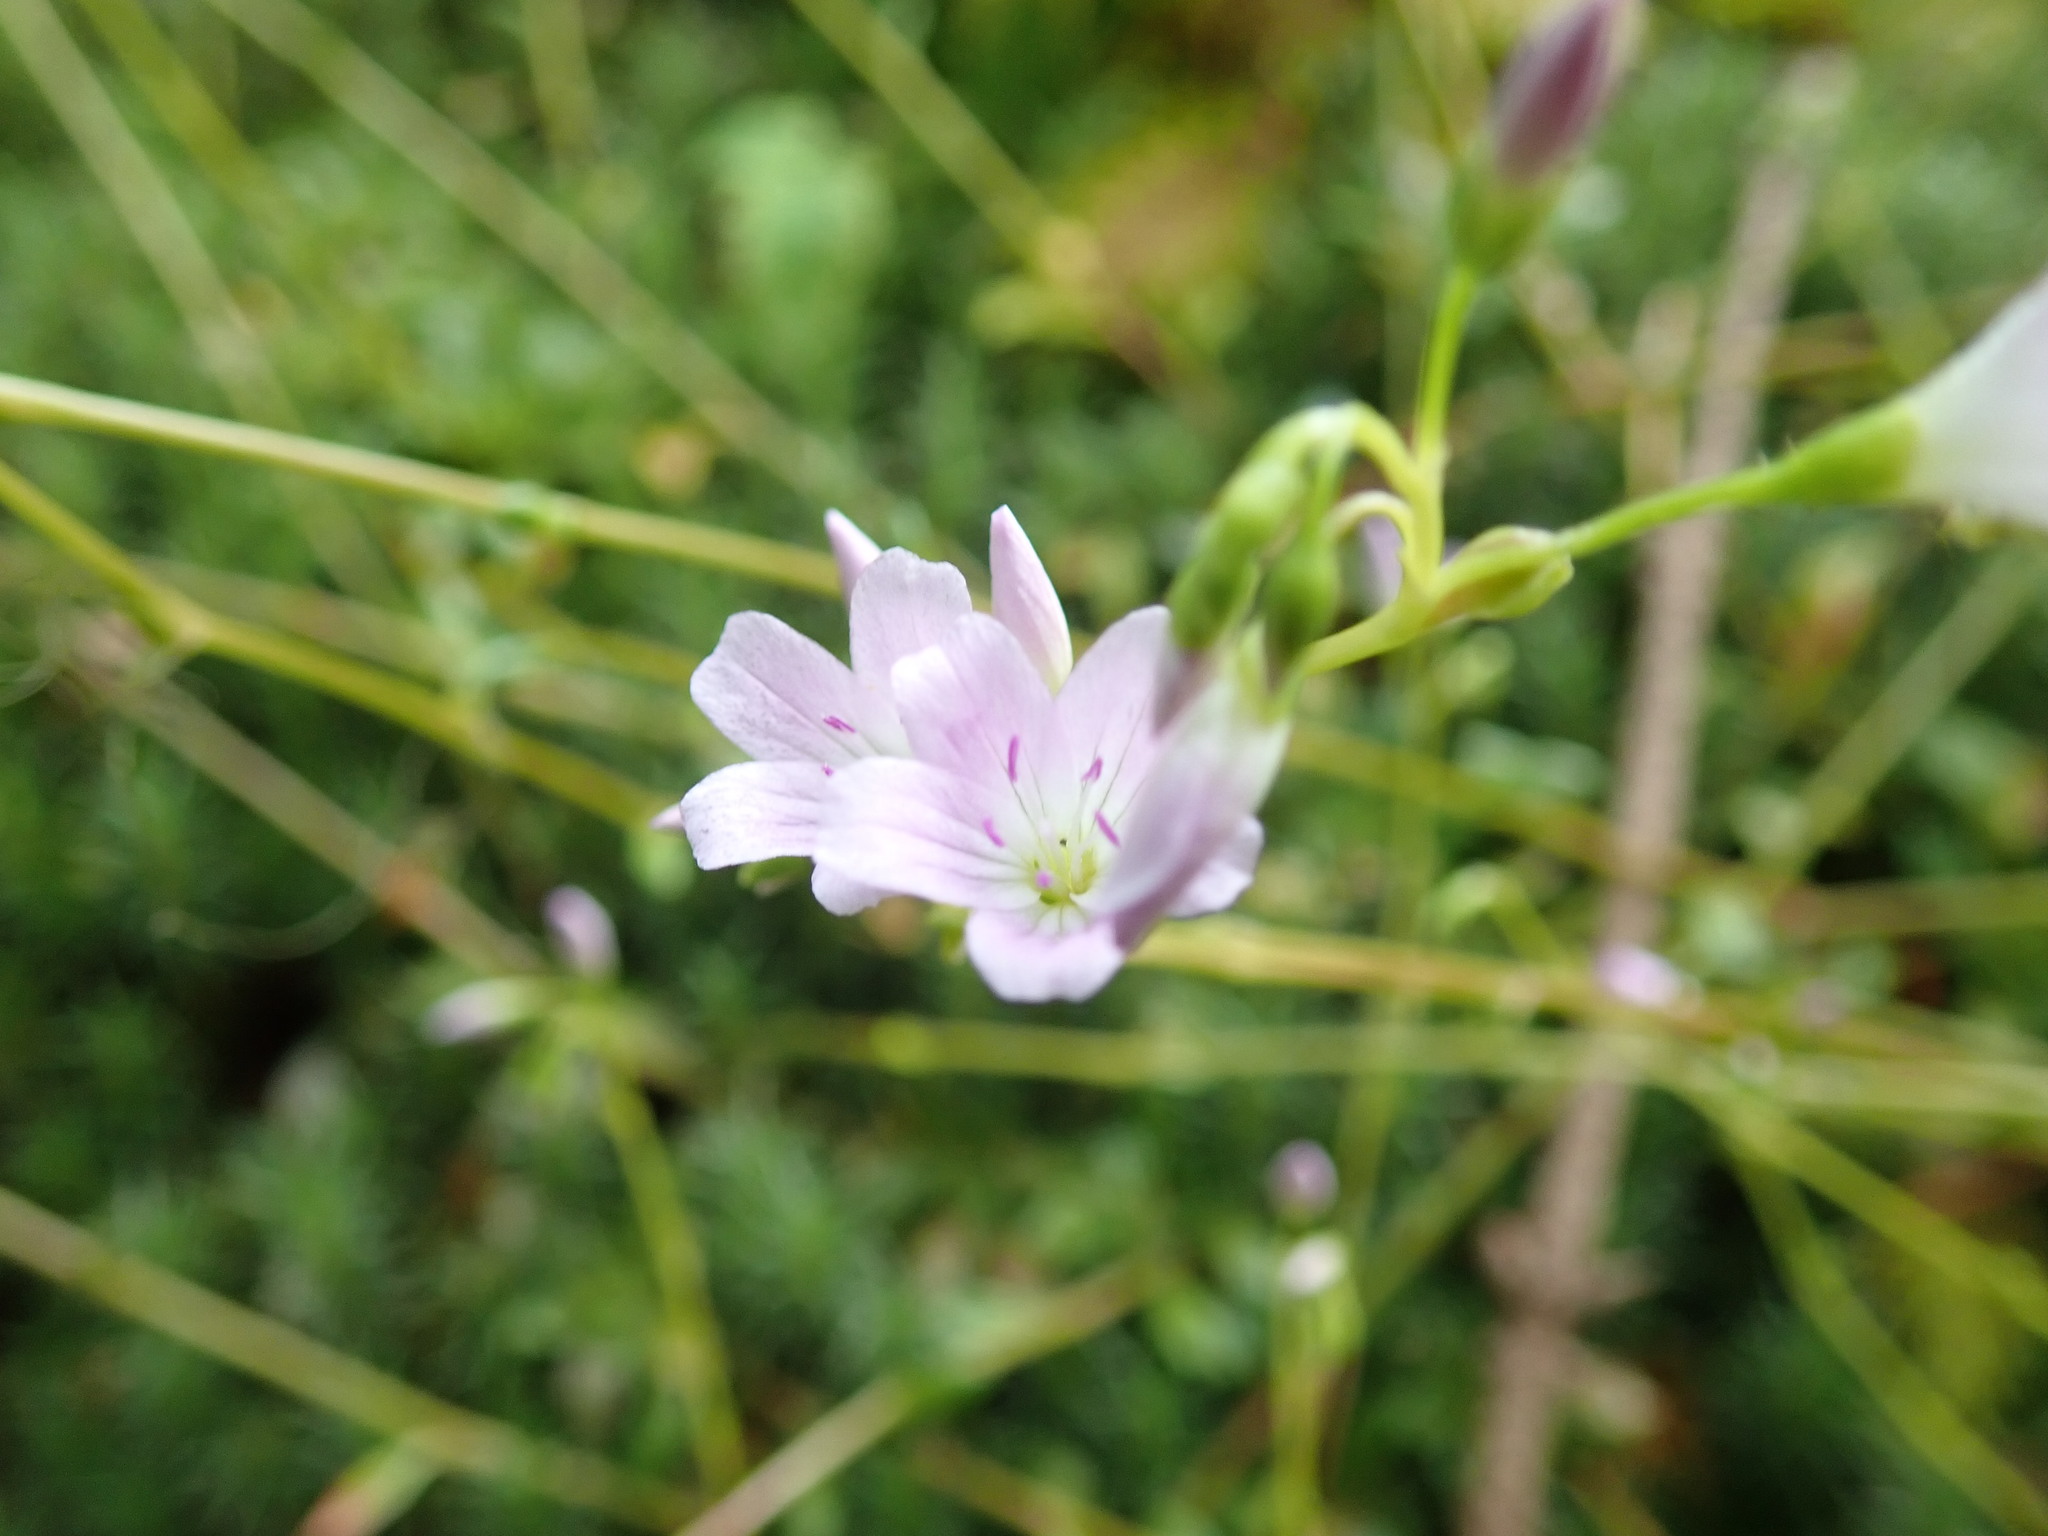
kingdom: Plantae
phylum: Tracheophyta
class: Magnoliopsida
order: Caryophyllales
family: Montiaceae
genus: Montia
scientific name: Montia parvifolia
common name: Small-leaved blinks
